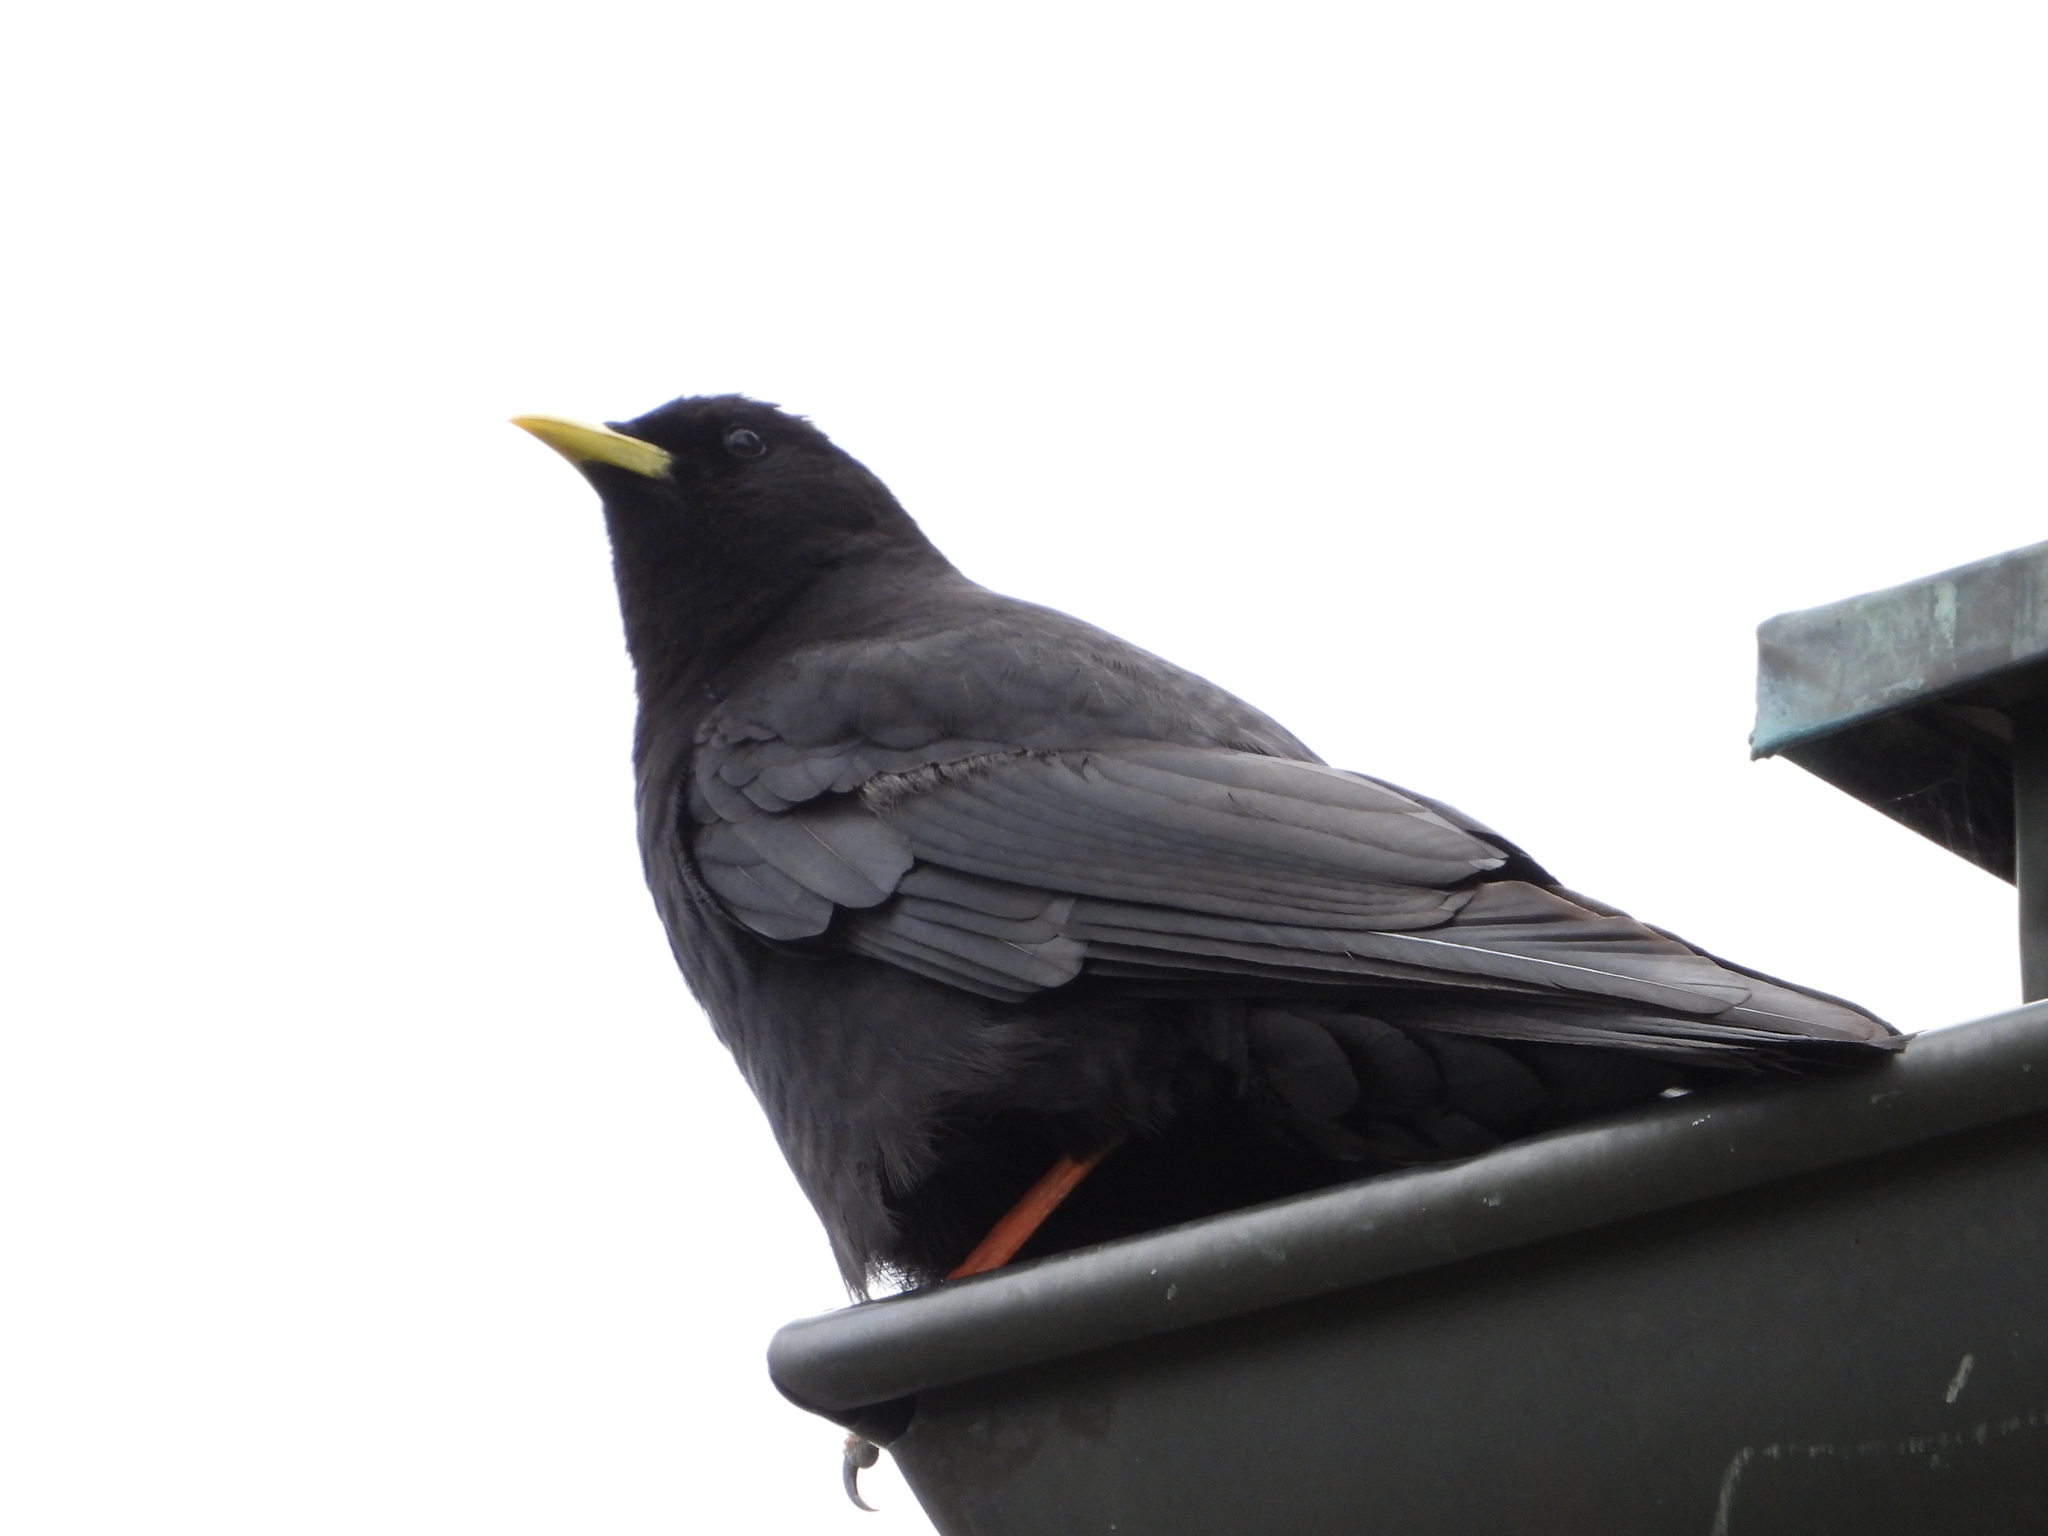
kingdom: Animalia
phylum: Chordata
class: Aves
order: Passeriformes
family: Corvidae
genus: Pyrrhocorax
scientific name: Pyrrhocorax graculus
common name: Alpine chough
